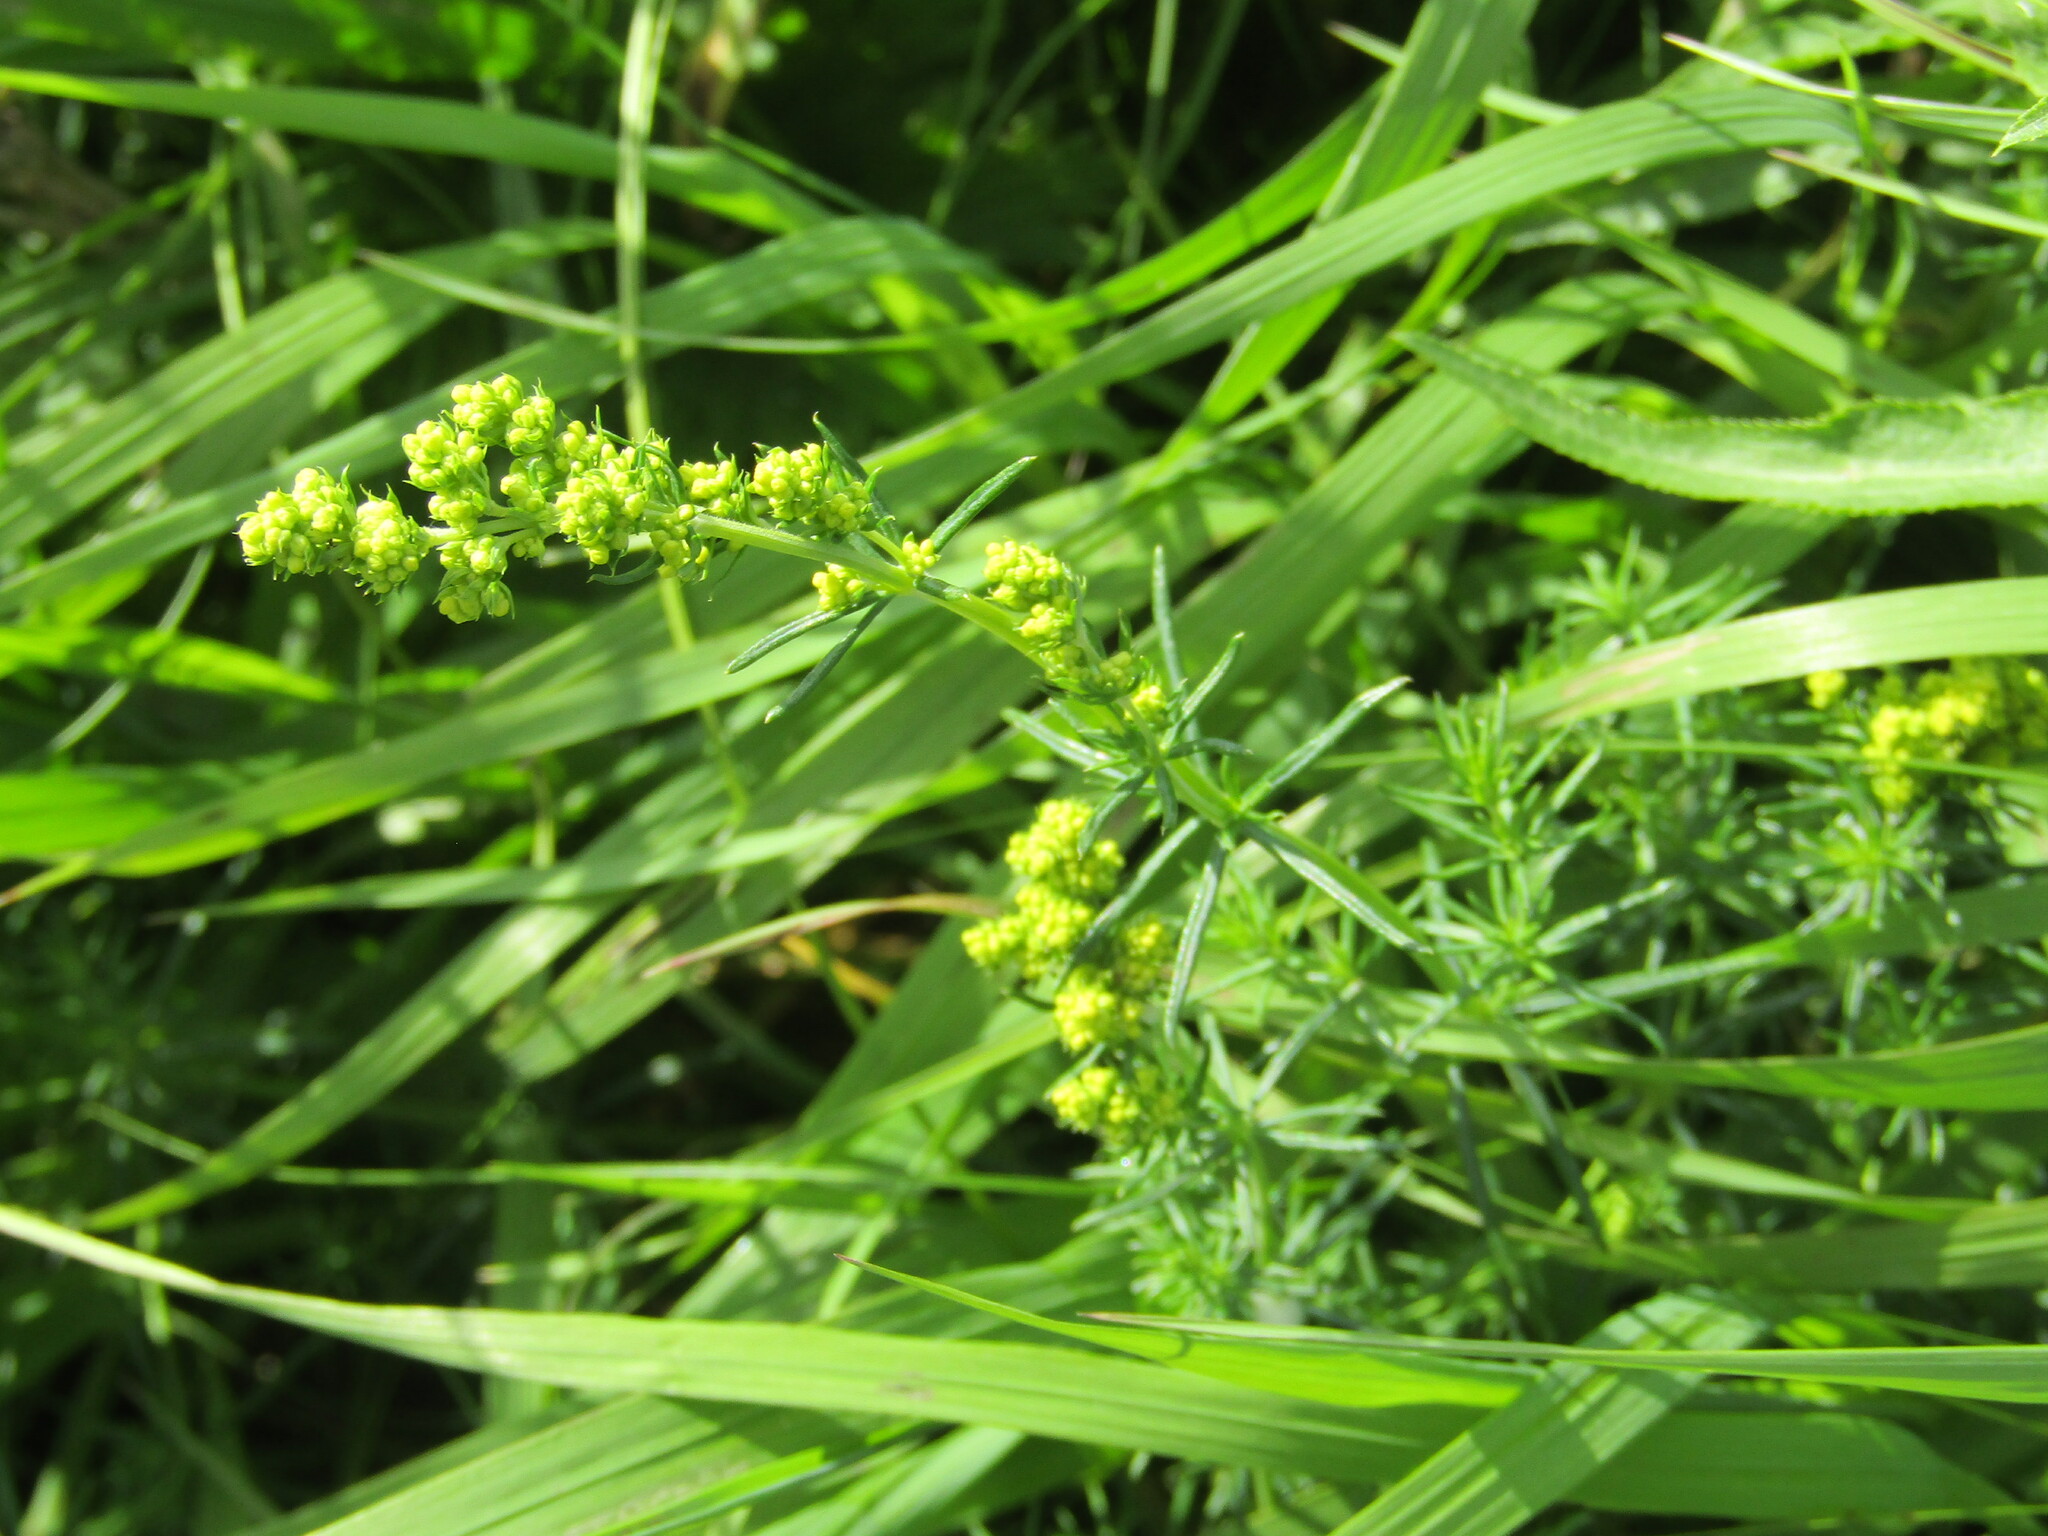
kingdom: Plantae
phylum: Tracheophyta
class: Magnoliopsida
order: Gentianales
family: Rubiaceae
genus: Galium
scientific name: Galium verum
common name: Lady's bedstraw
